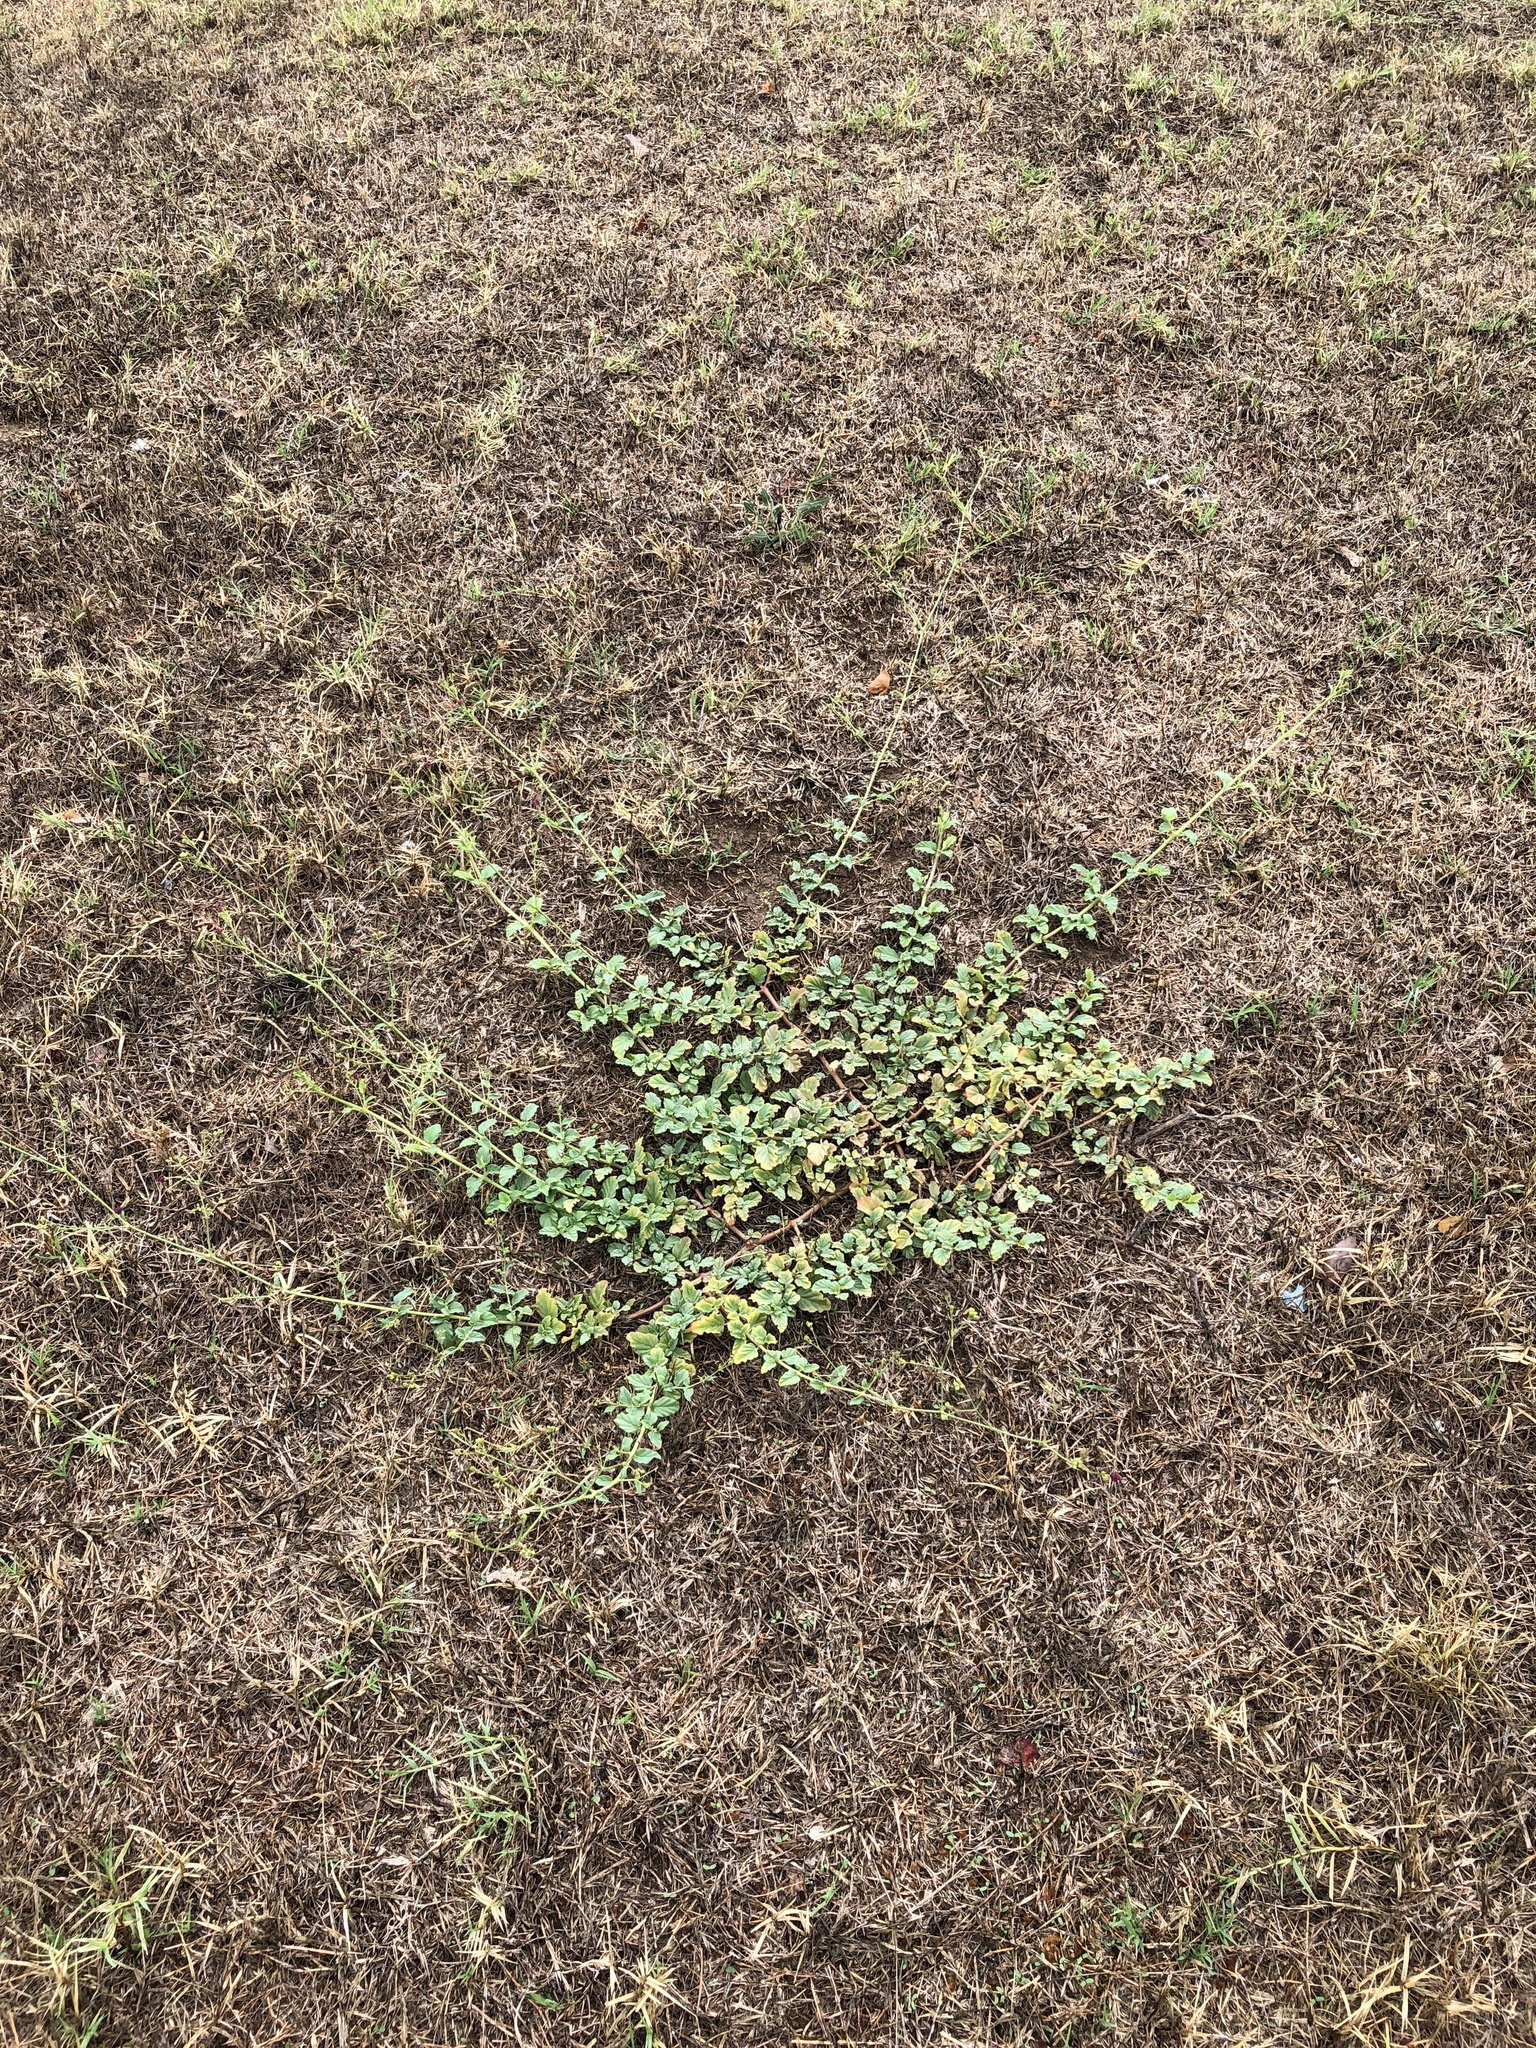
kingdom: Plantae
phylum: Tracheophyta
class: Magnoliopsida
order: Caryophyllales
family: Nyctaginaceae
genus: Boerhavia
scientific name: Boerhavia coccinea
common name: Scarlet spiderling
